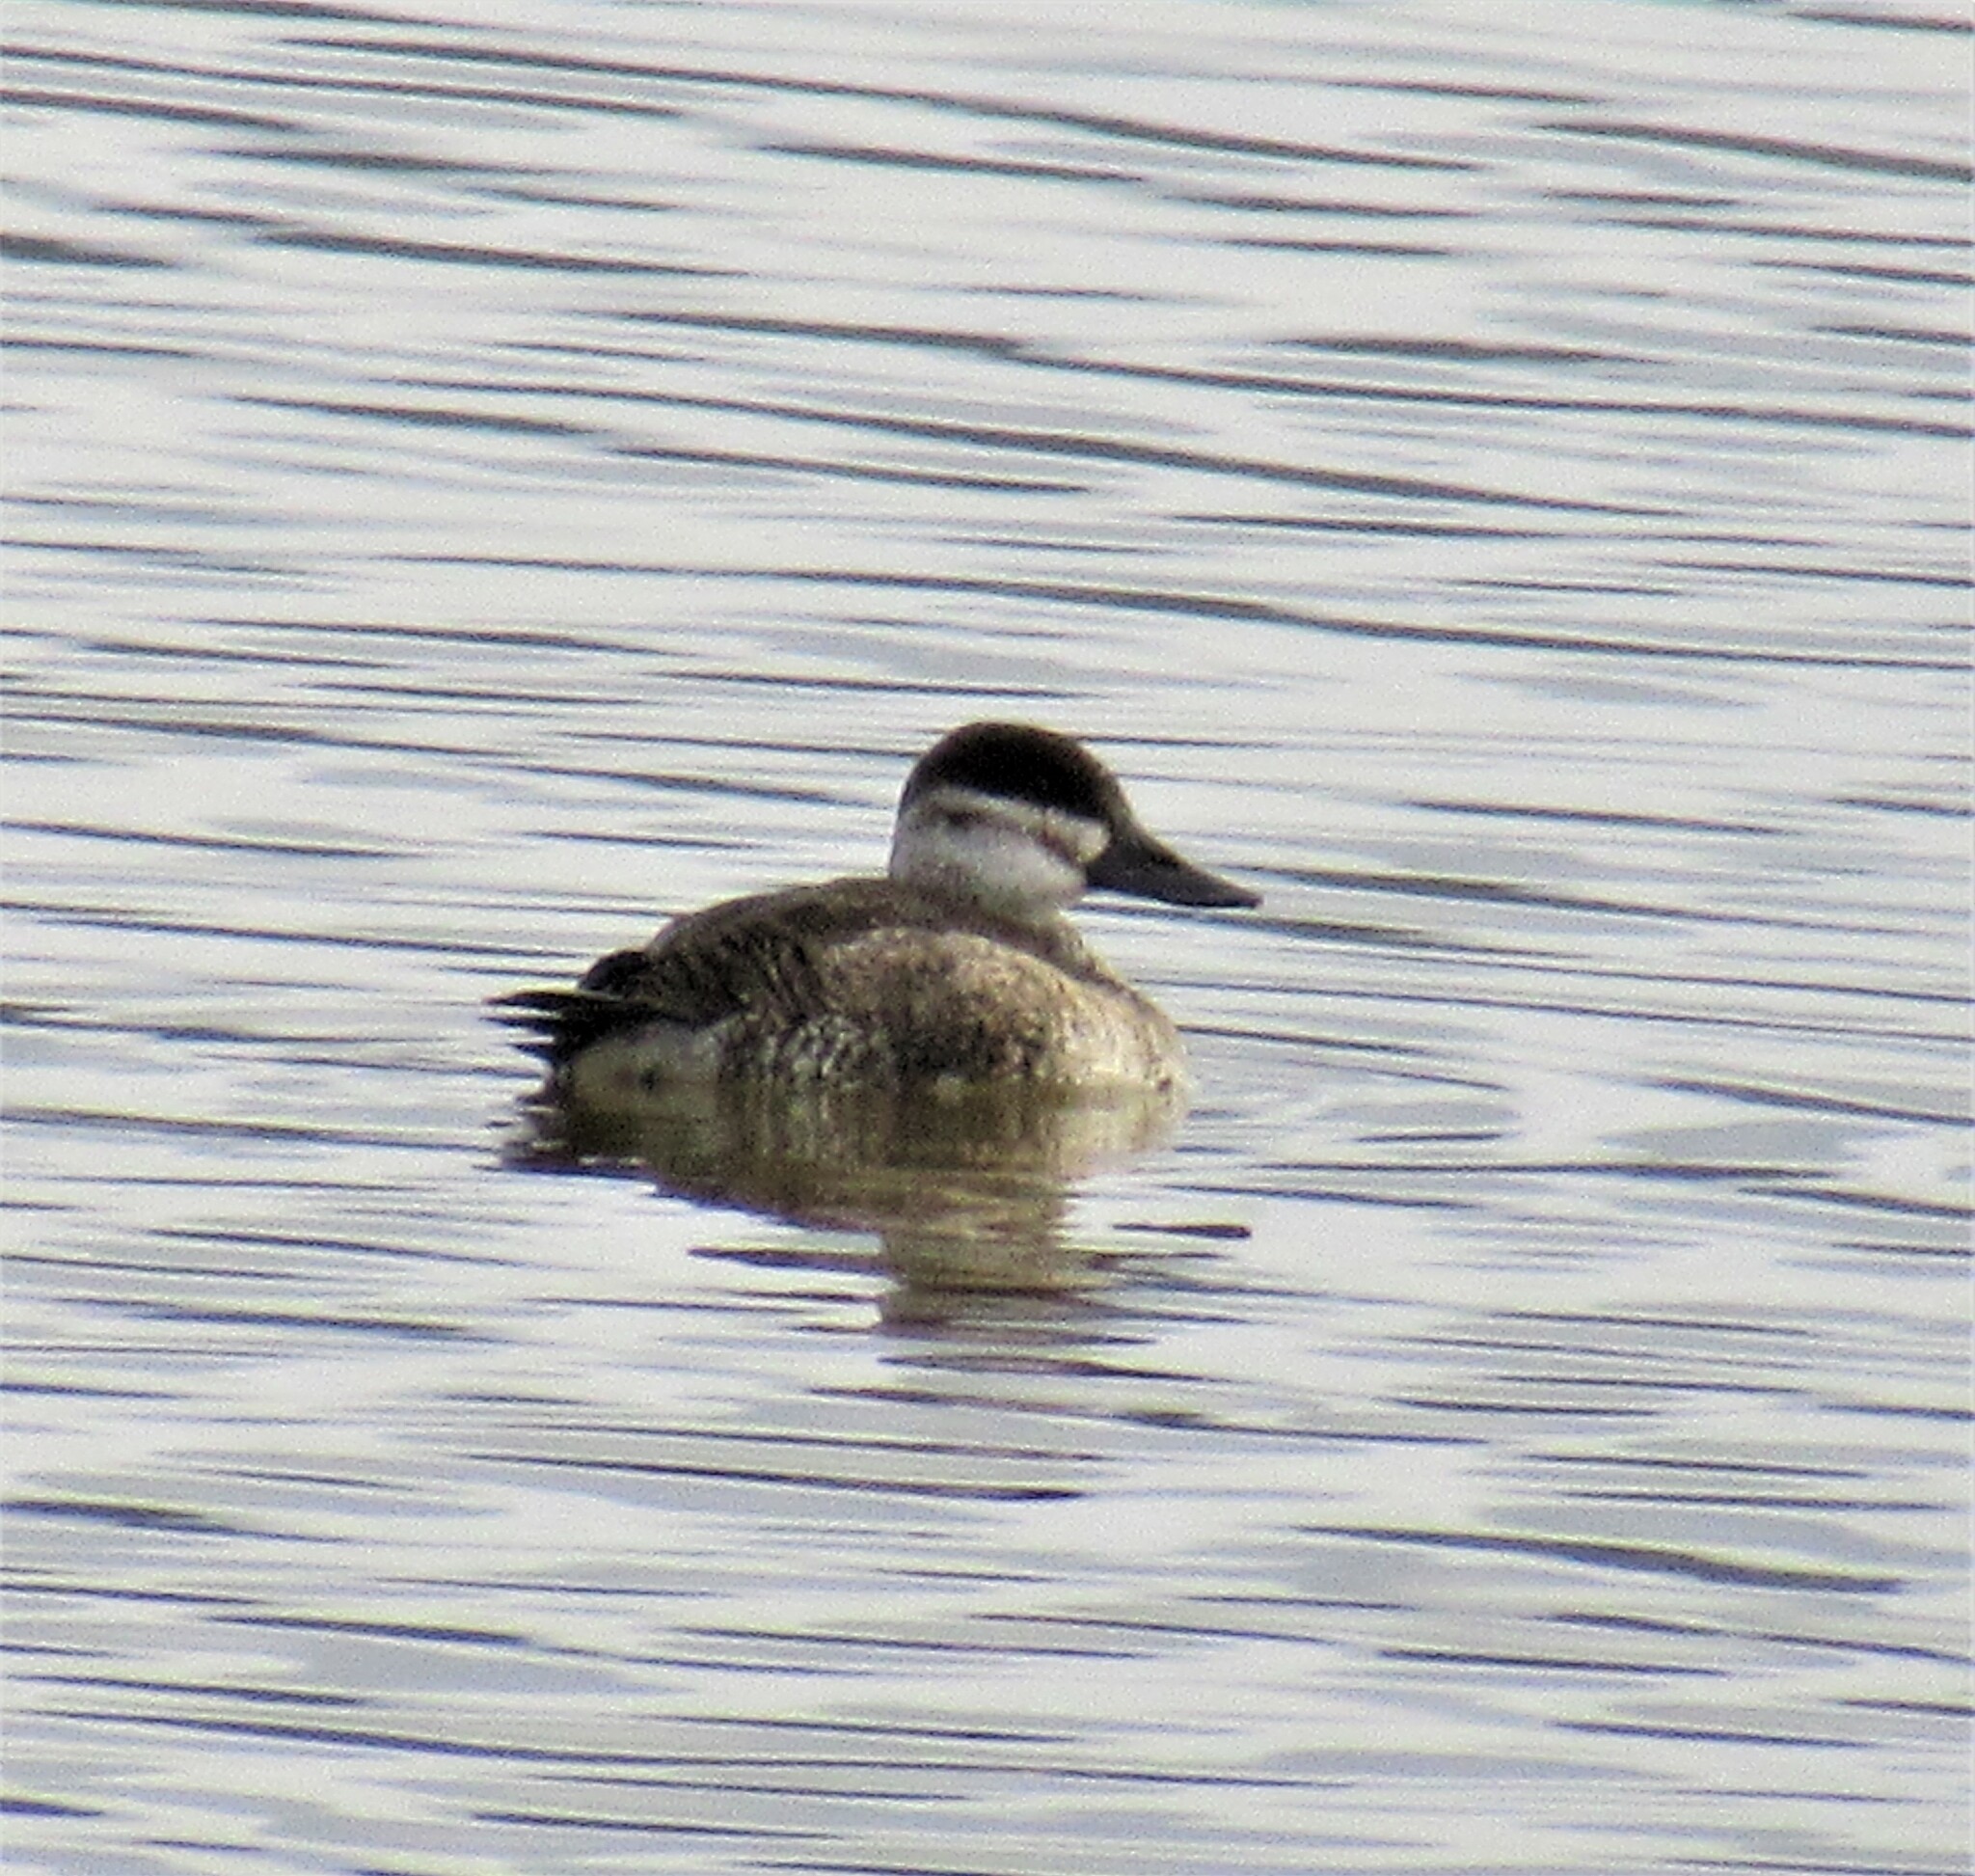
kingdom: Animalia
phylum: Chordata
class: Aves
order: Anseriformes
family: Anatidae
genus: Oxyura
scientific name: Oxyura jamaicensis
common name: Ruddy duck
